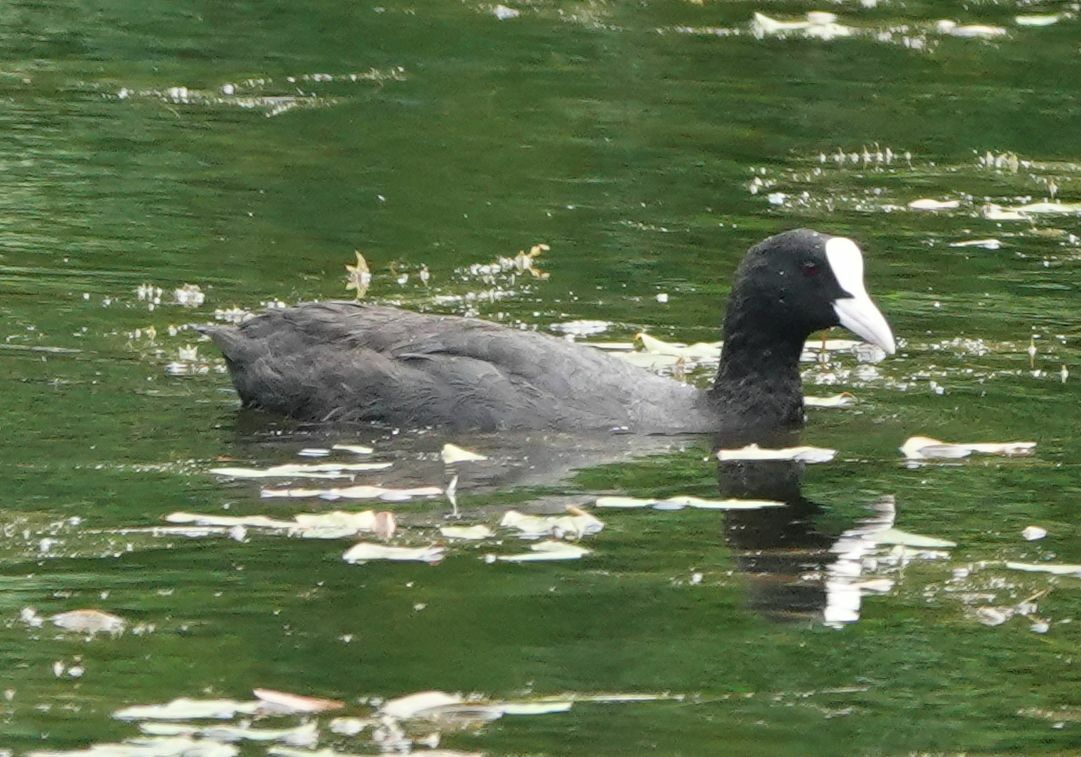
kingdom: Animalia
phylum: Chordata
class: Aves
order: Gruiformes
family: Rallidae
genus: Fulica
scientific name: Fulica atra
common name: Eurasian coot
